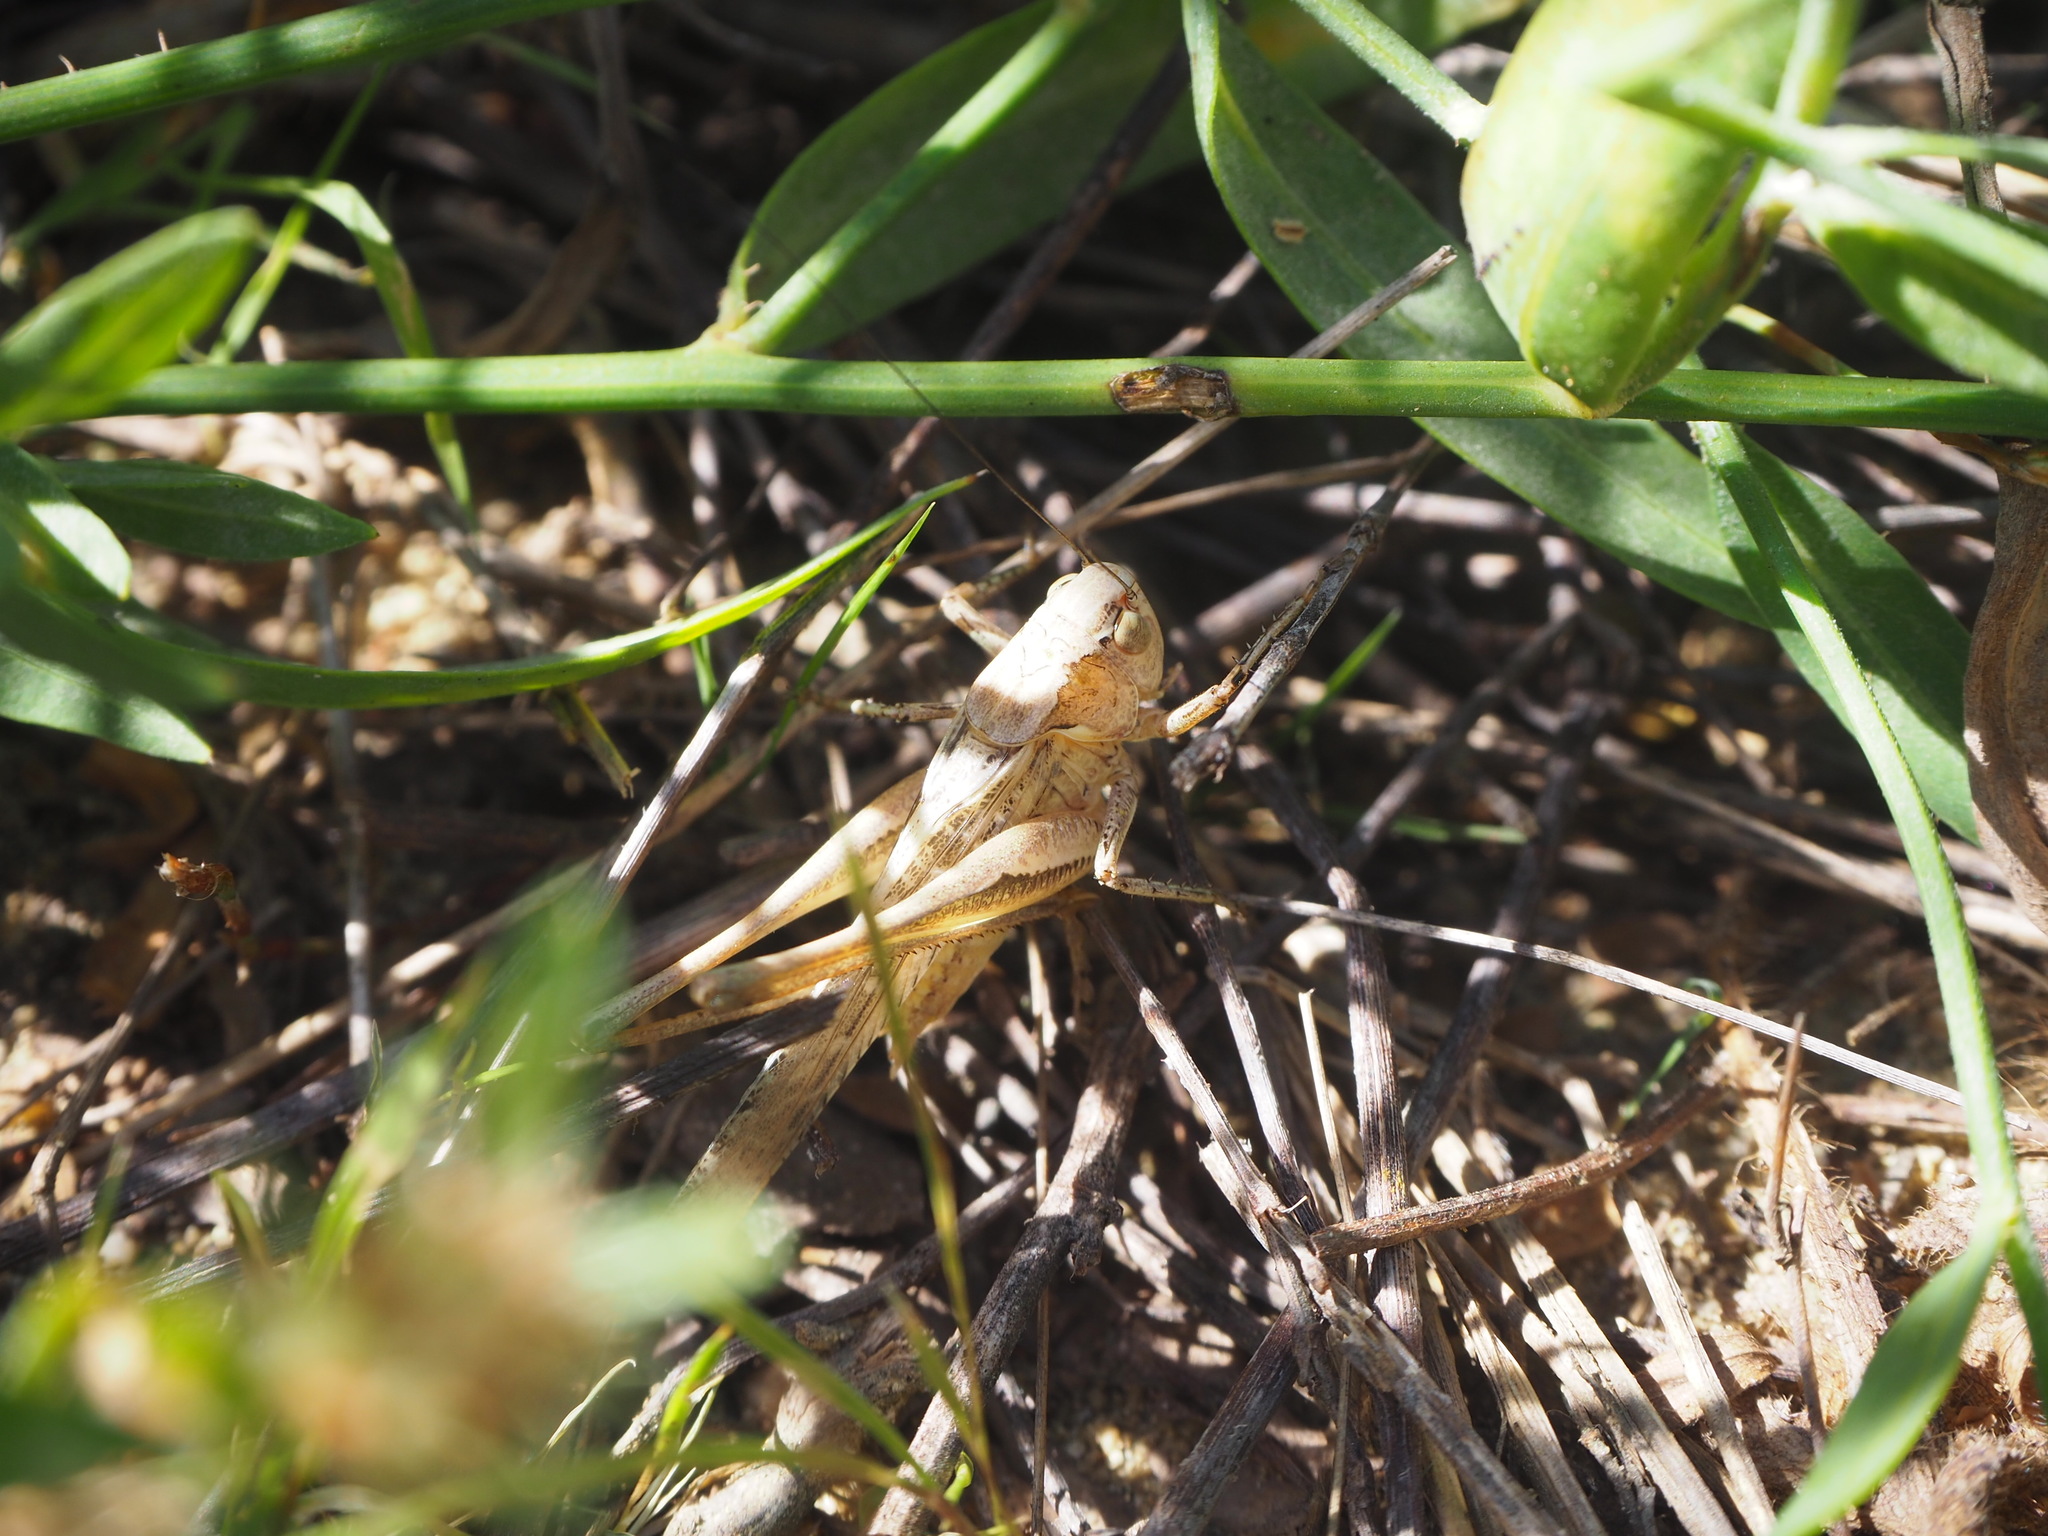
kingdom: Animalia
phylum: Arthropoda
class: Insecta
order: Orthoptera
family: Tettigoniidae
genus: Platycleis
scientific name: Platycleis grisea
